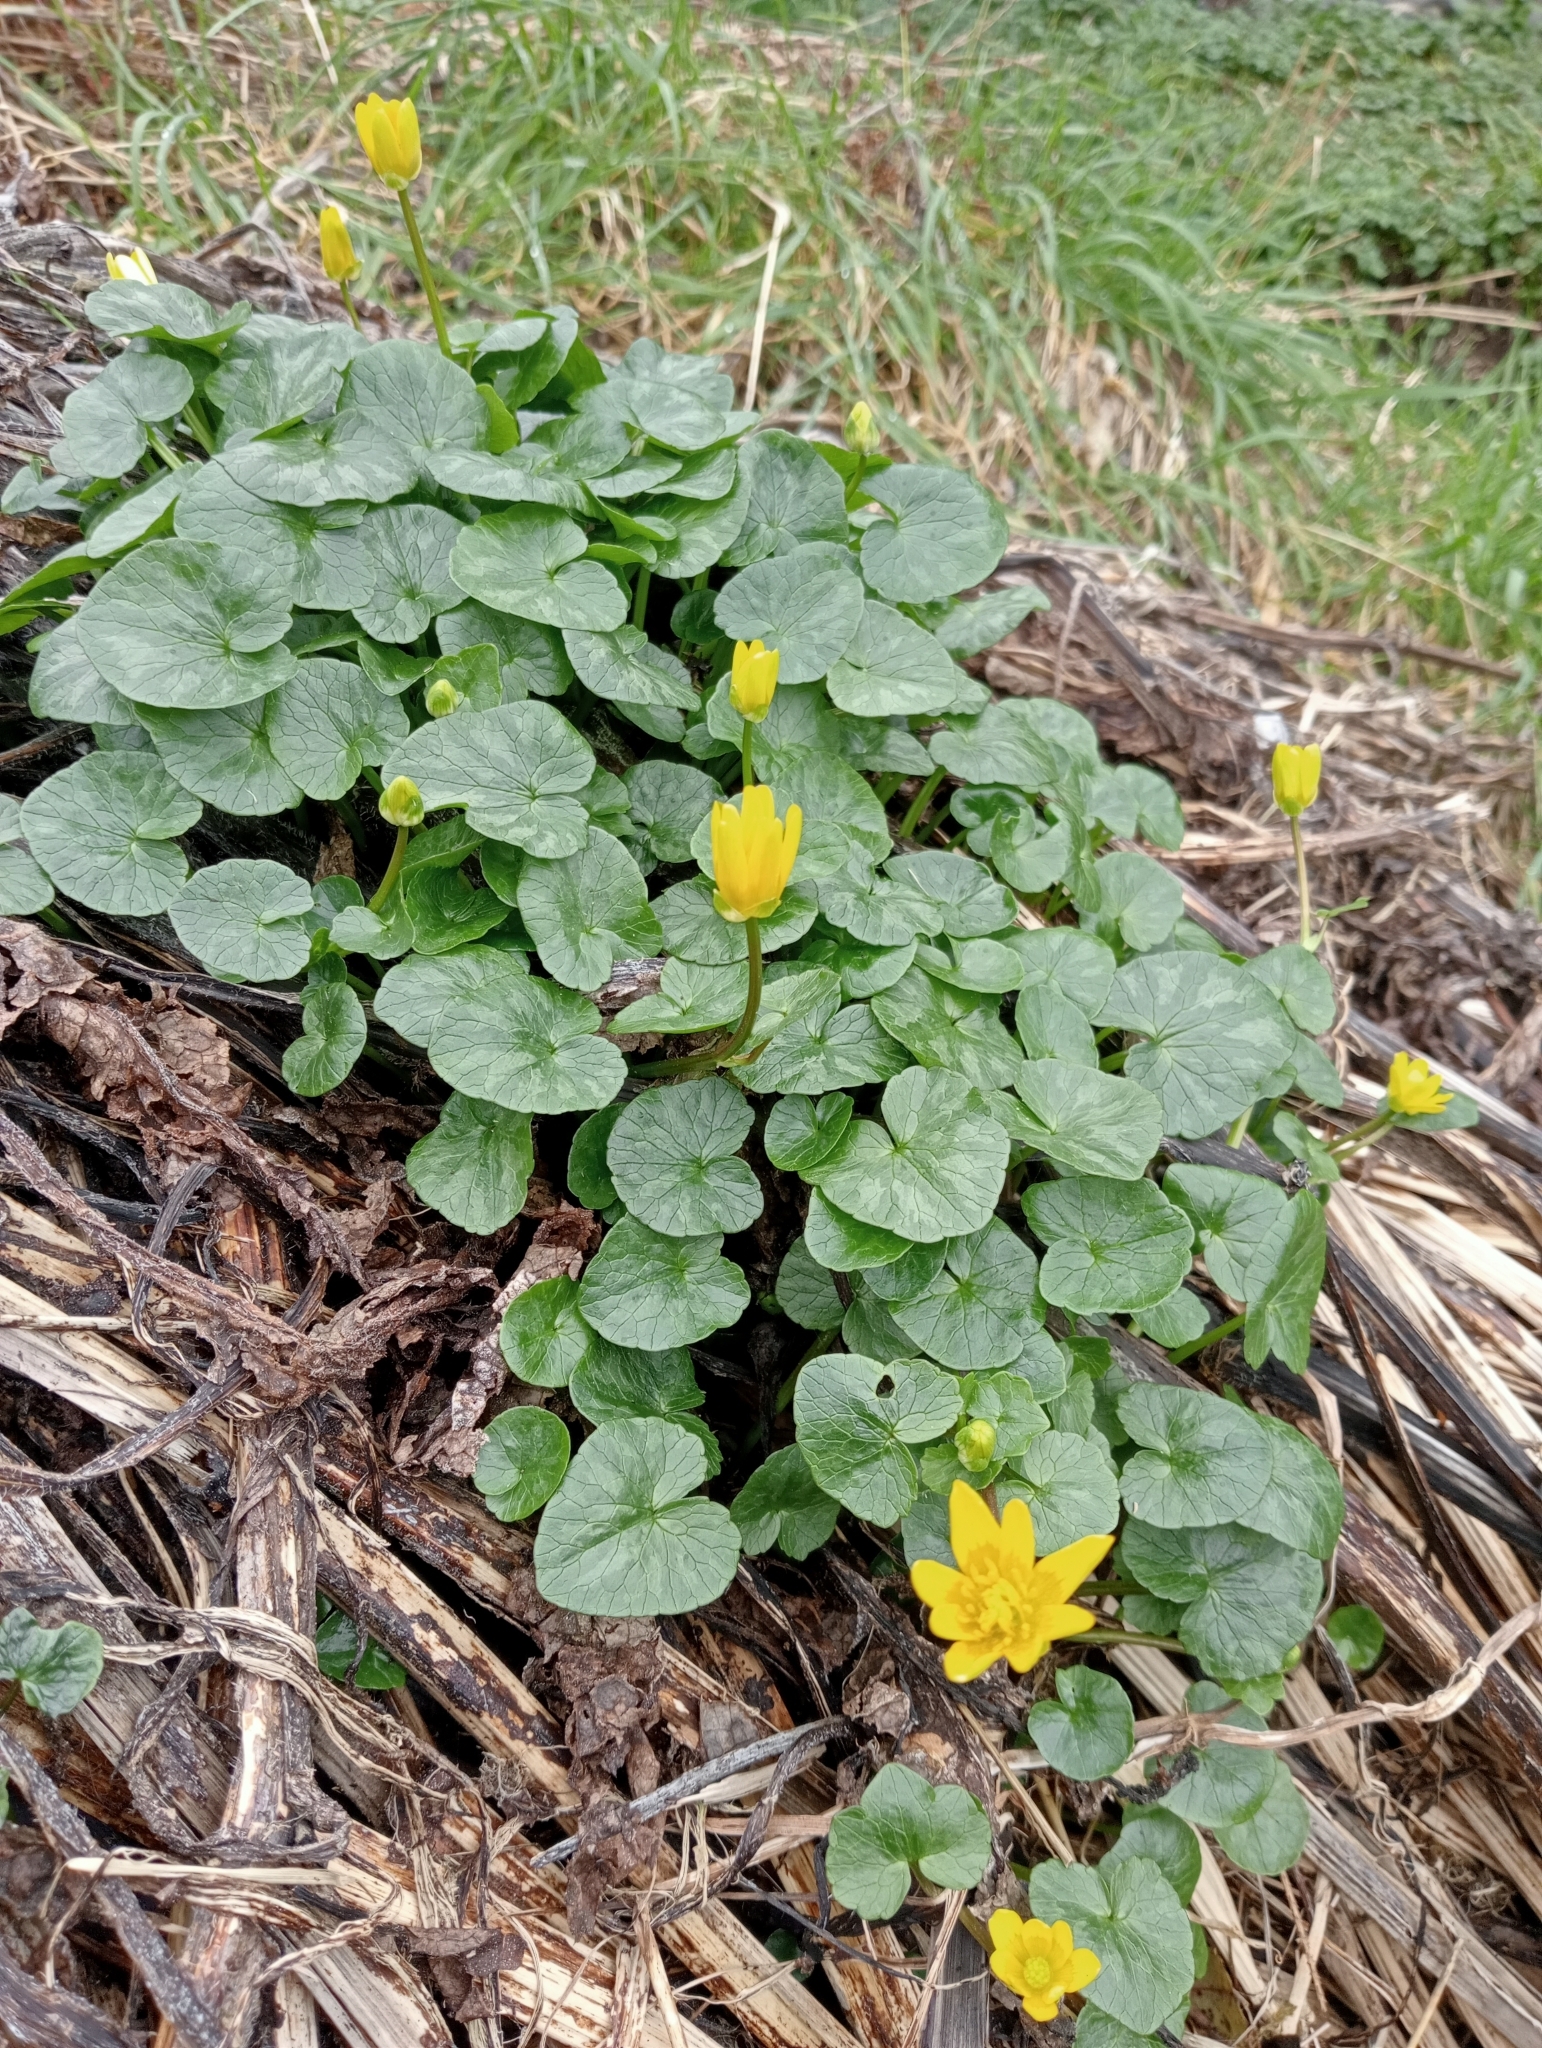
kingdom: Plantae
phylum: Tracheophyta
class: Magnoliopsida
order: Ranunculales
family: Ranunculaceae
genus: Ficaria
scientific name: Ficaria verna
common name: Lesser celandine
